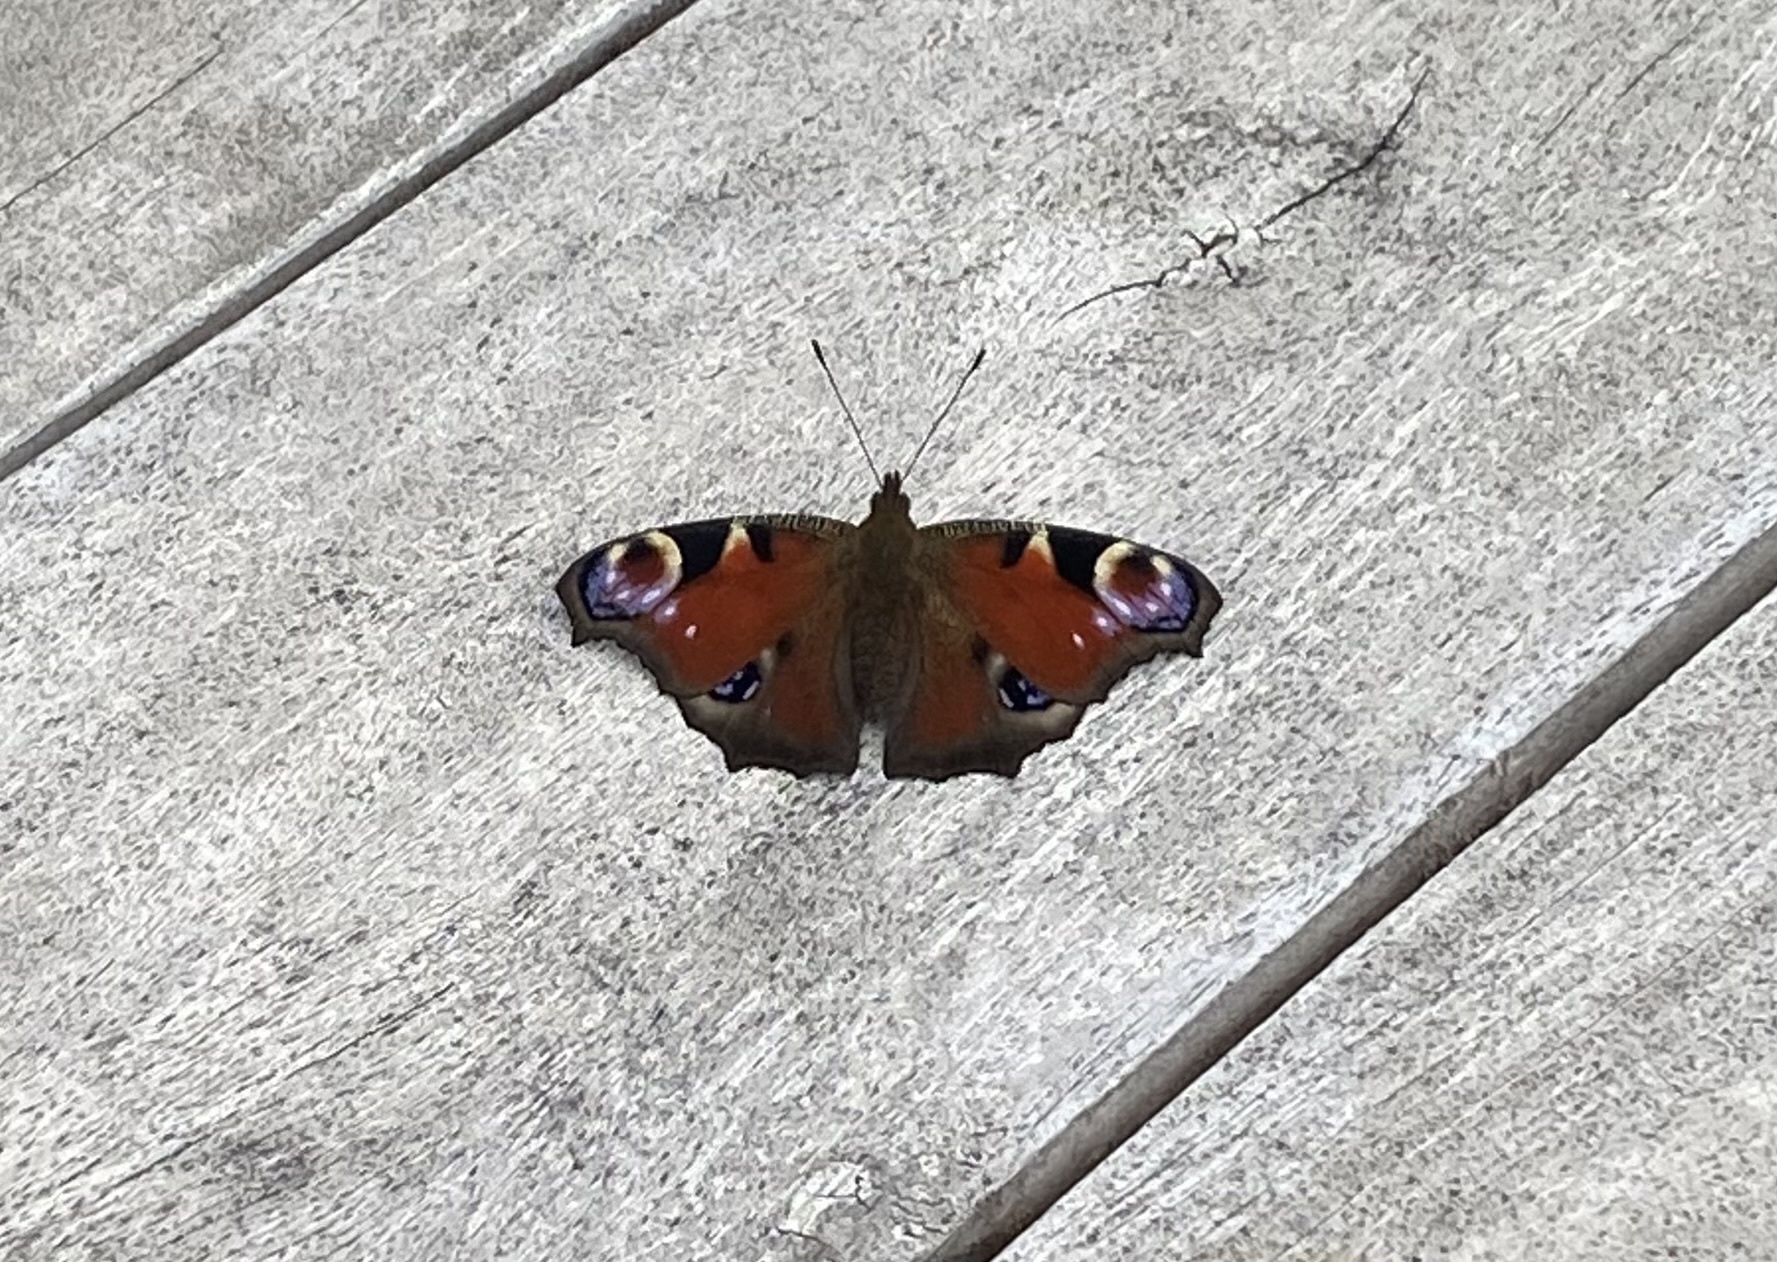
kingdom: Animalia
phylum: Arthropoda
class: Insecta
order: Lepidoptera
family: Nymphalidae
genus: Aglais
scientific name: Aglais io
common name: Peacock
